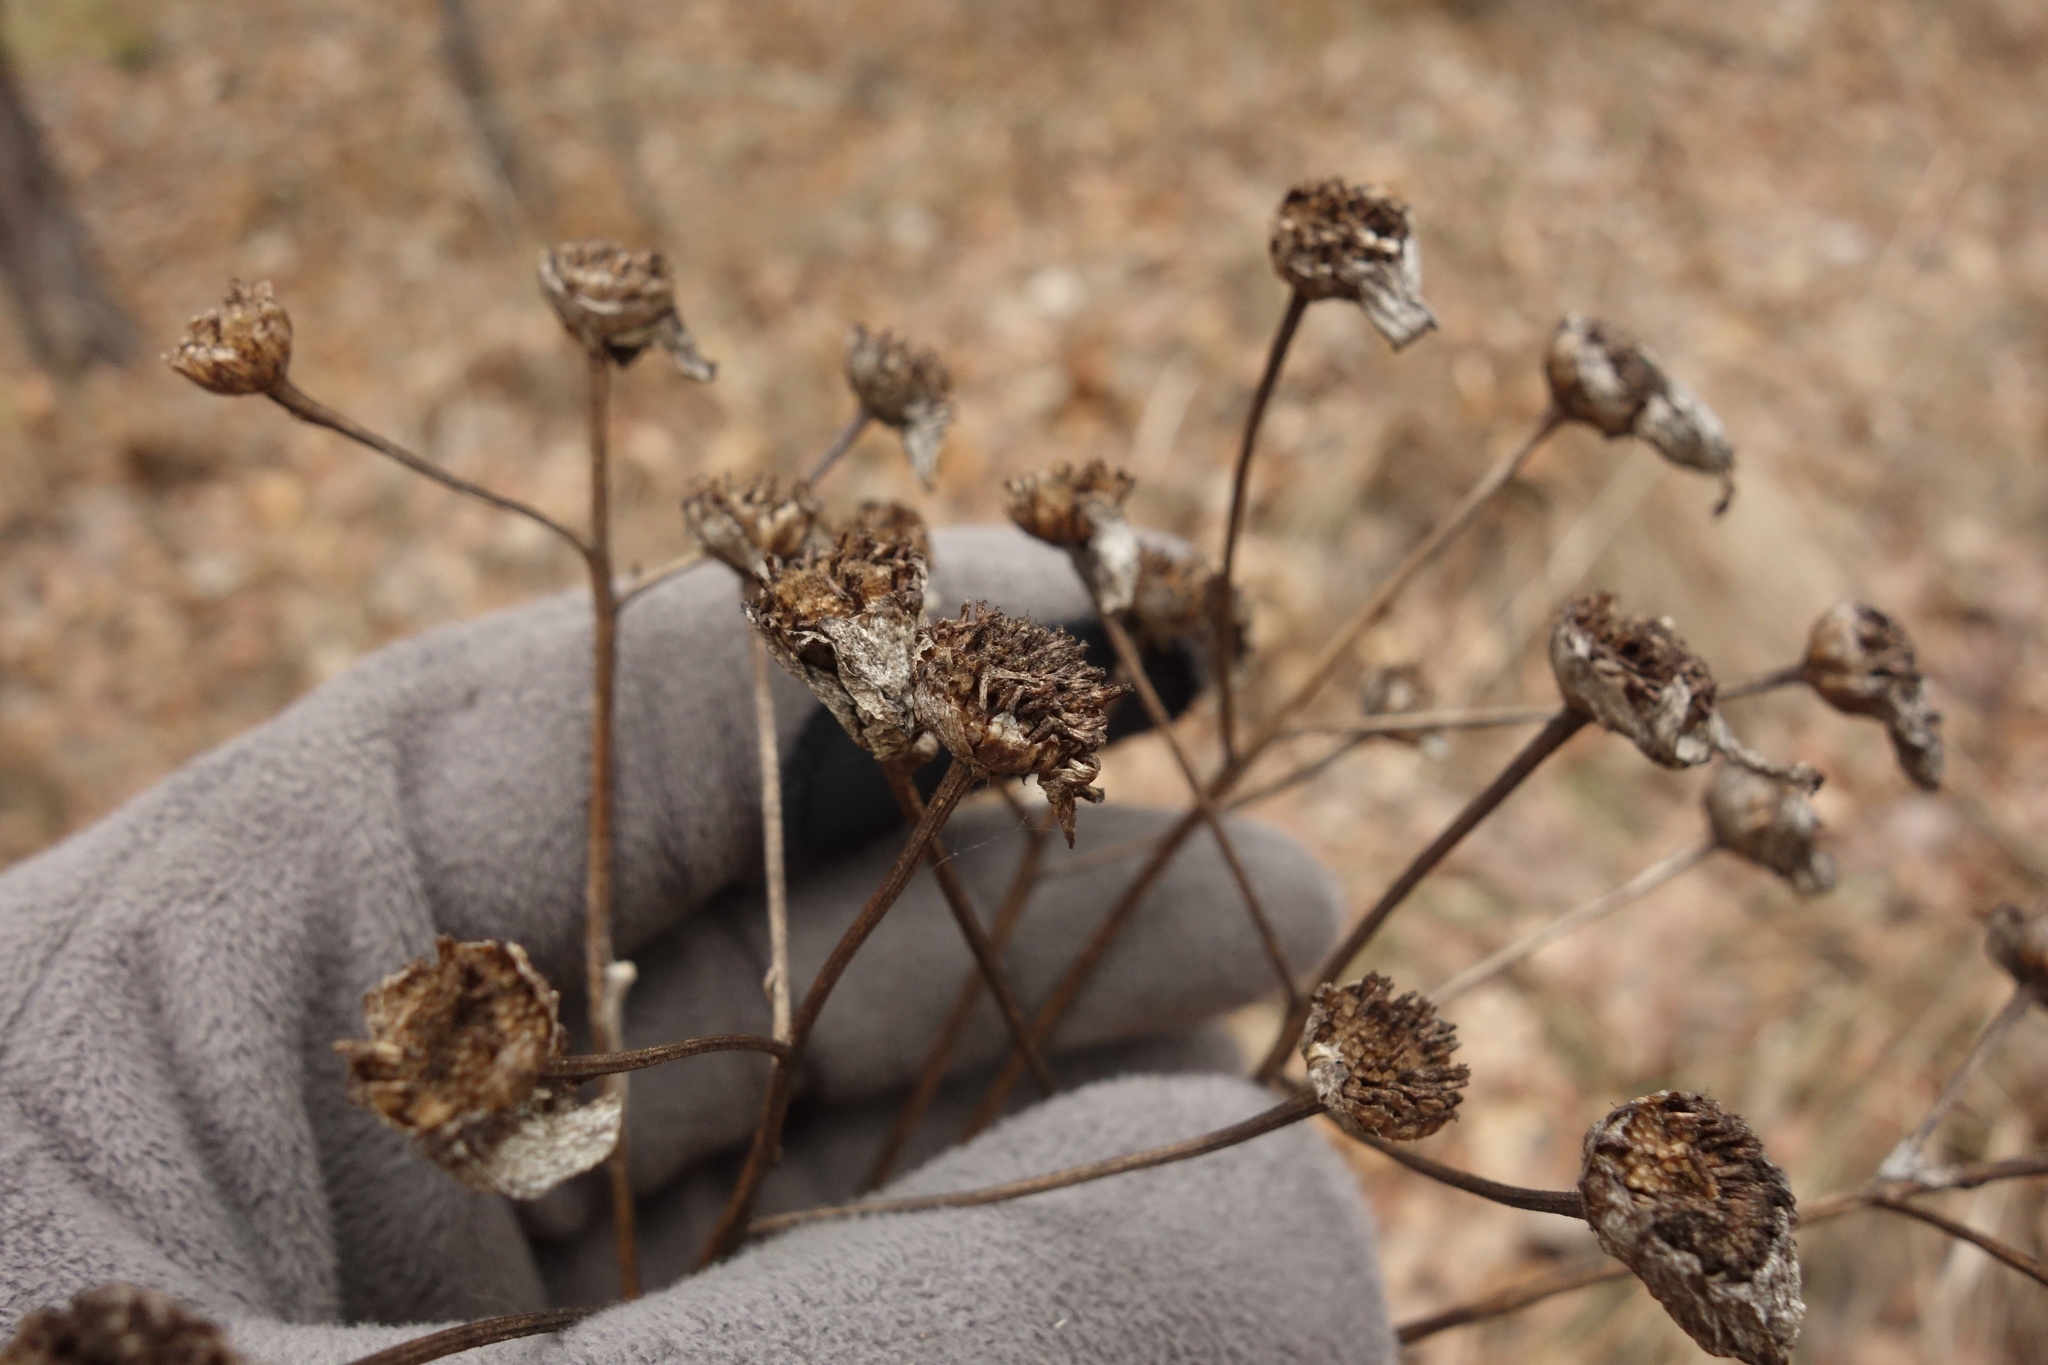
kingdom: Plantae
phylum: Tracheophyta
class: Magnoliopsida
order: Asterales
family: Asteraceae
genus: Tanacetum
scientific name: Tanacetum corymbosum
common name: Scentless feverfew
